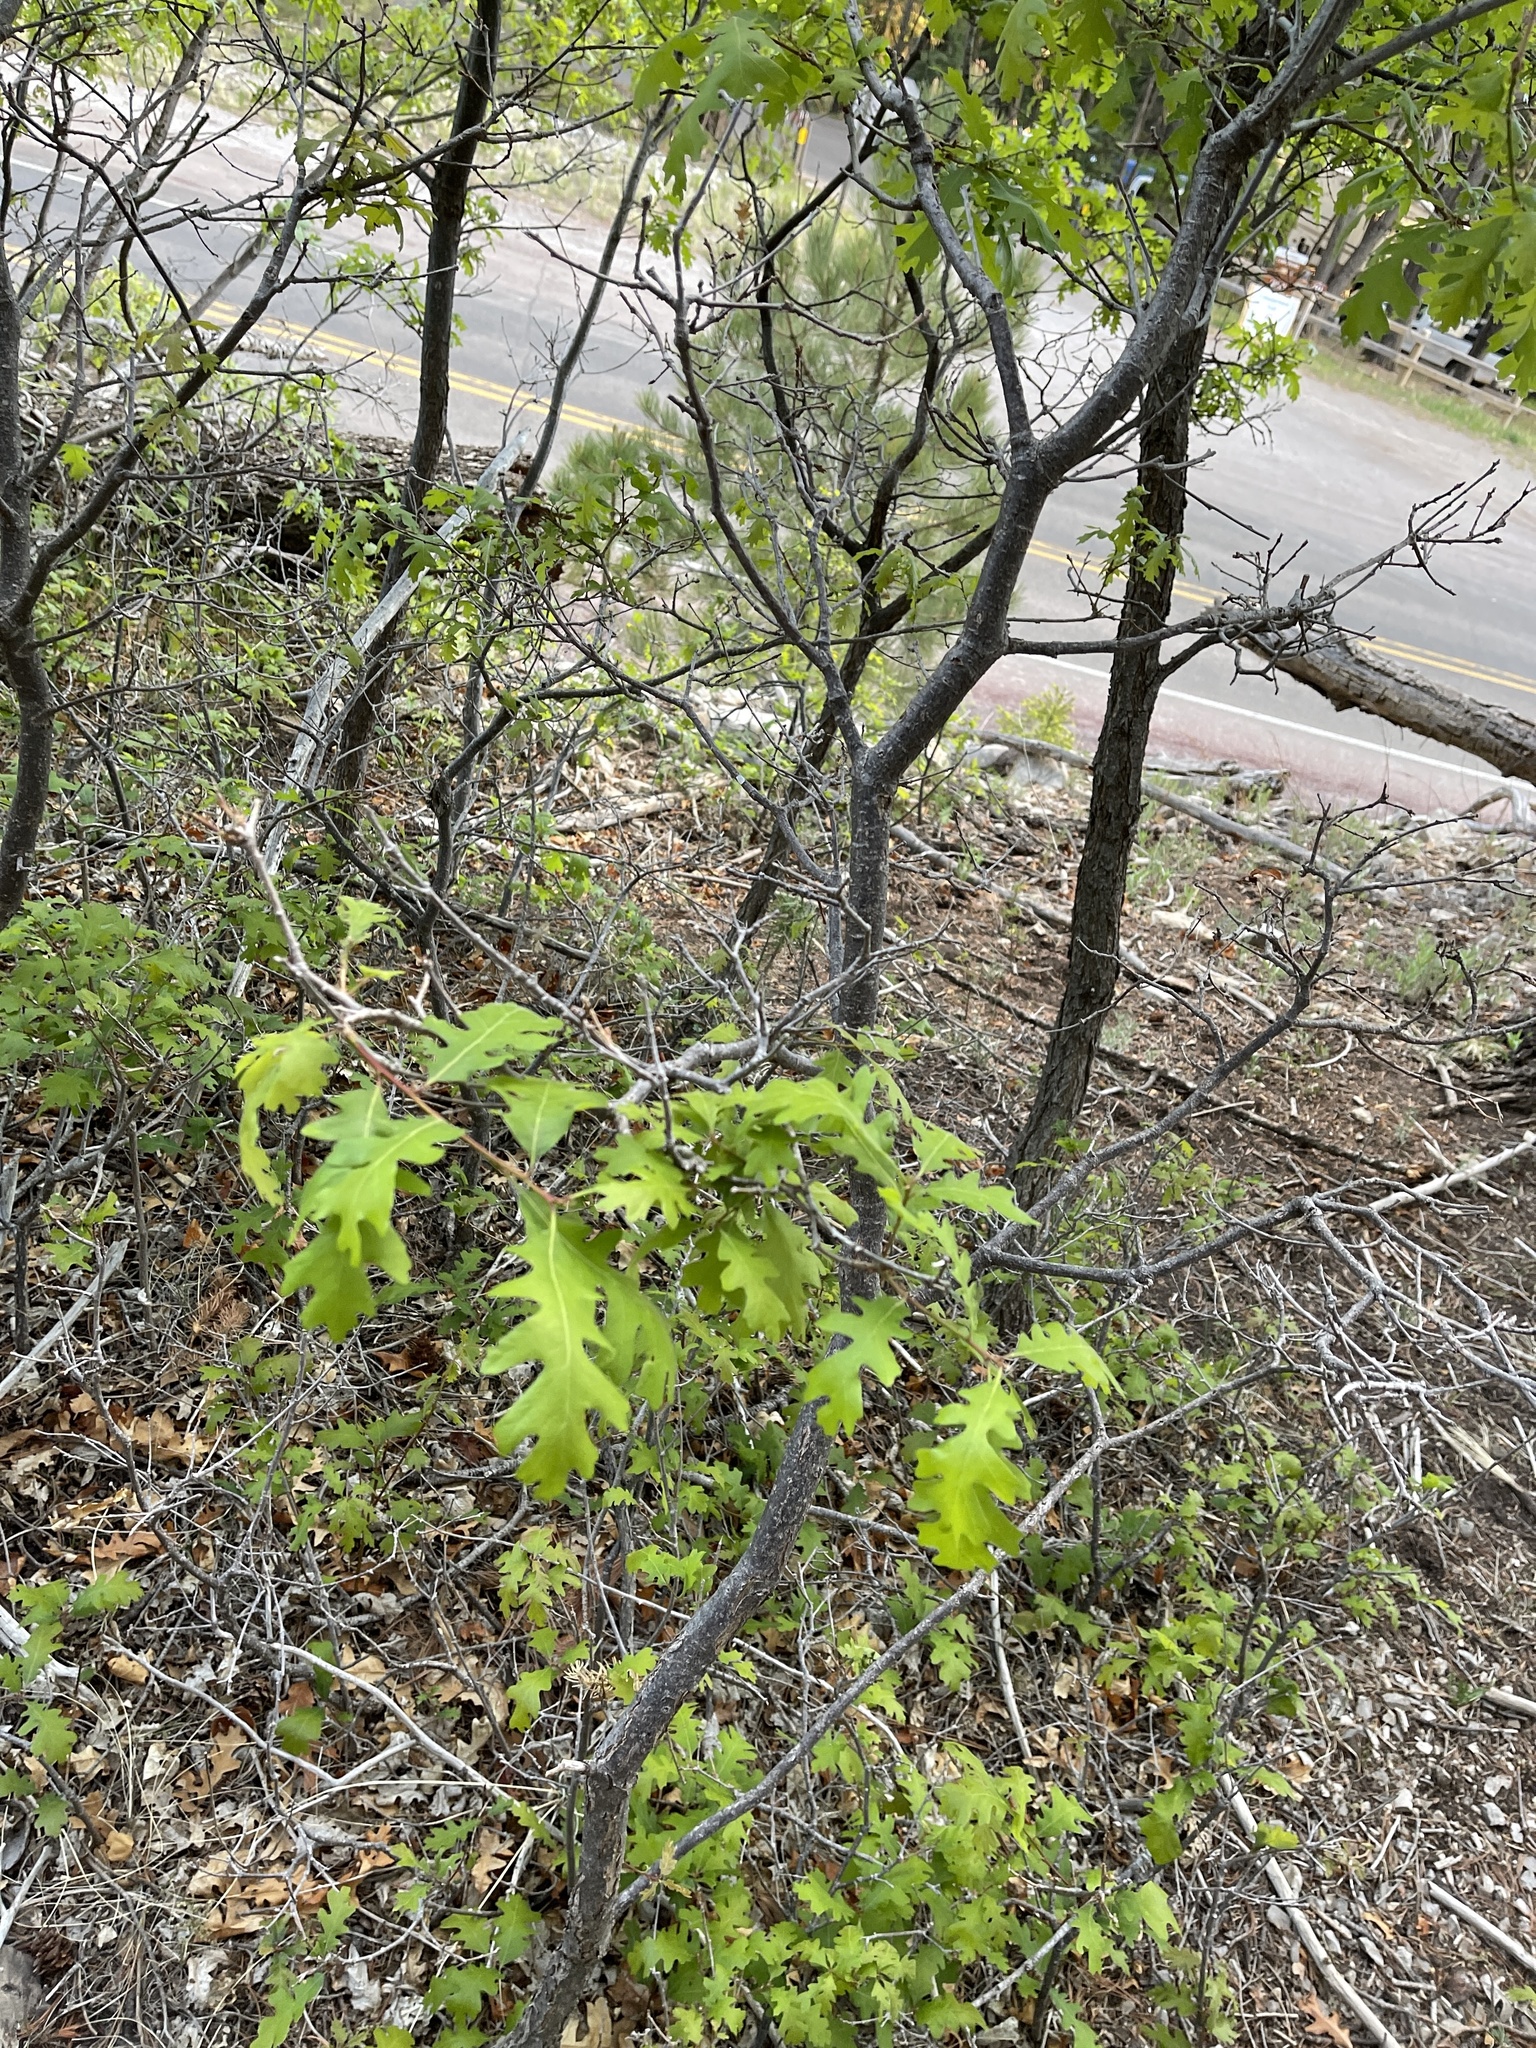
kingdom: Plantae
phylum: Tracheophyta
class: Magnoliopsida
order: Fagales
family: Fagaceae
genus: Quercus
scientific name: Quercus gambelii
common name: Gambel oak
